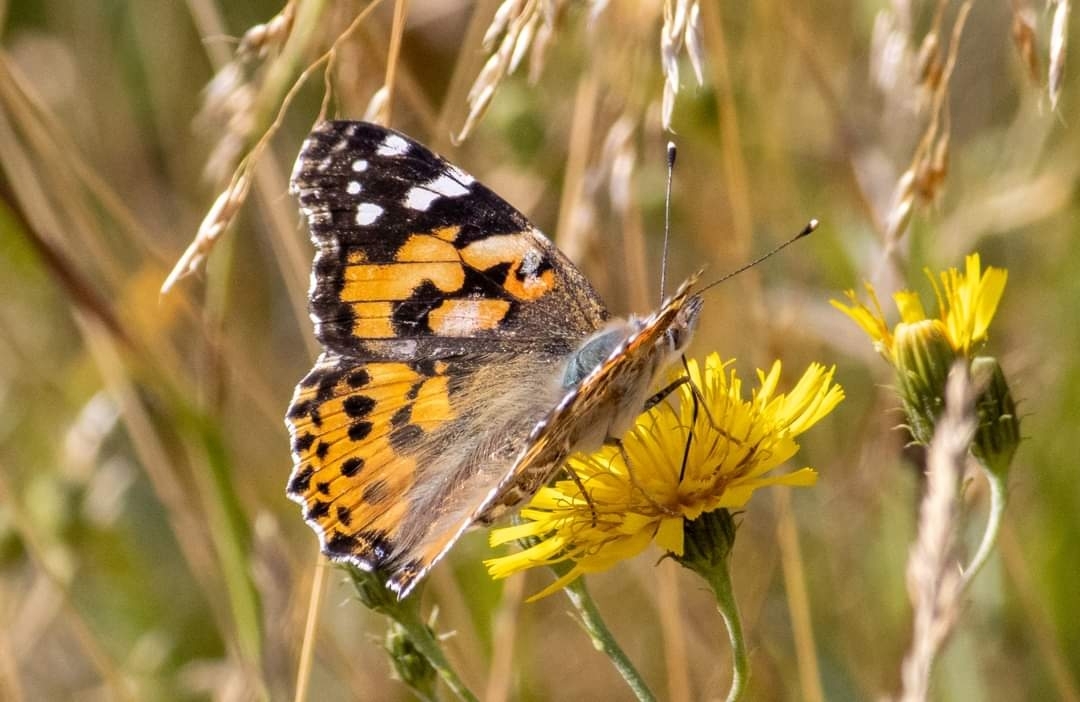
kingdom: Animalia
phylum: Arthropoda
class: Insecta
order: Lepidoptera
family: Nymphalidae
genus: Vanessa
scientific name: Vanessa cardui
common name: Painted lady
